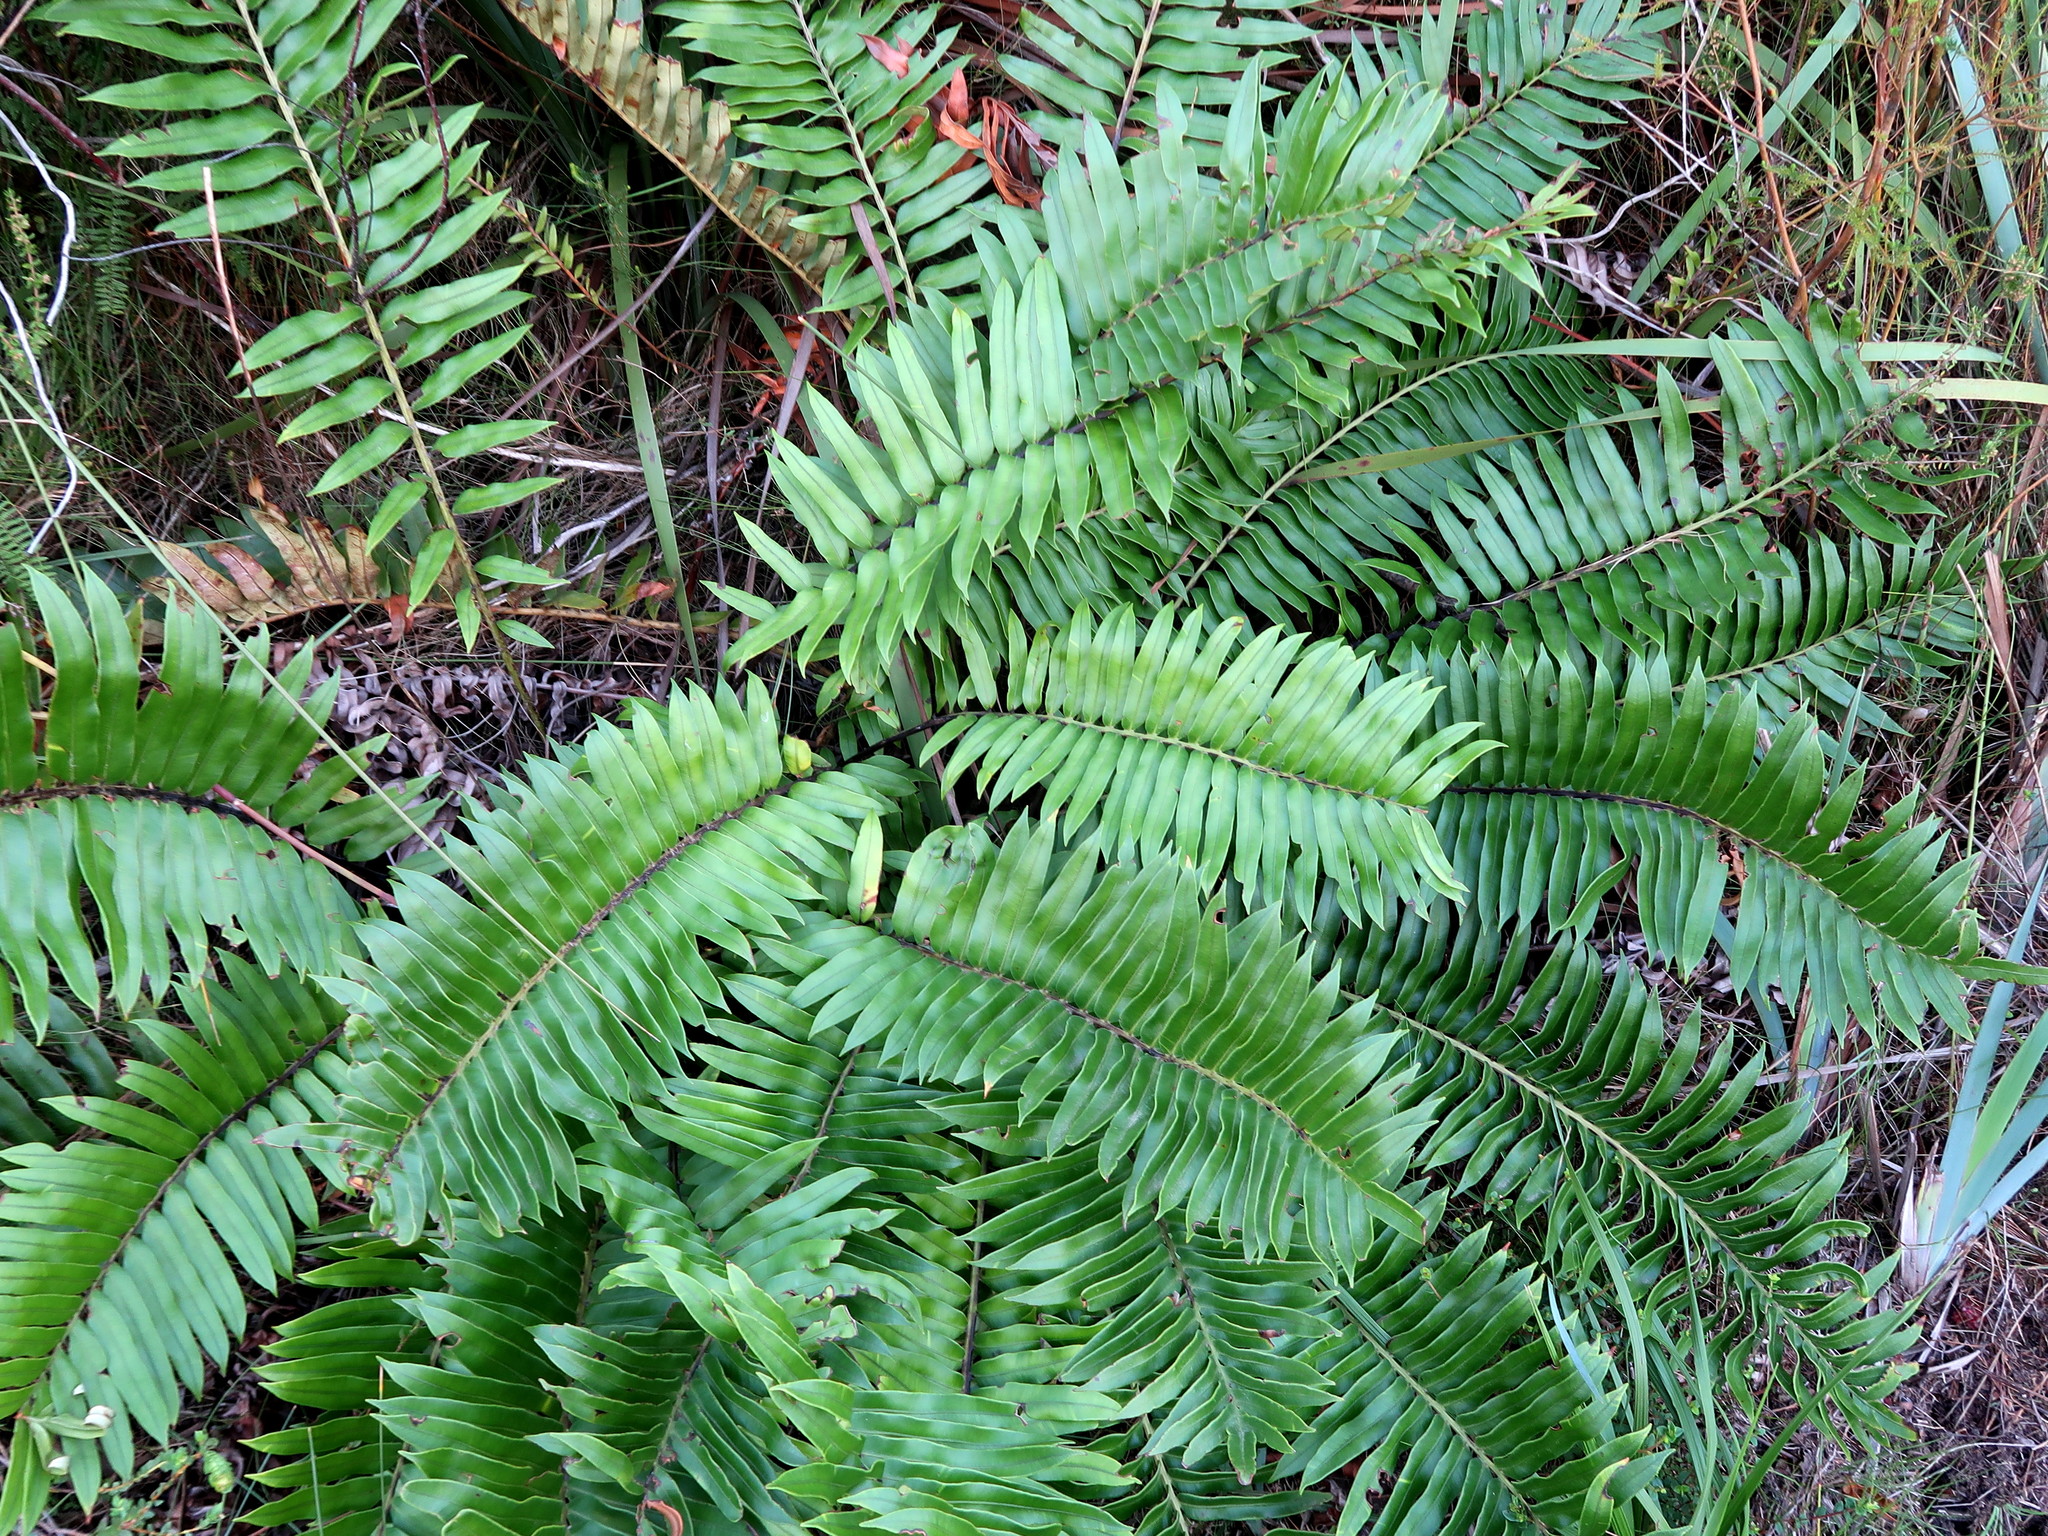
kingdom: Plantae
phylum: Tracheophyta
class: Polypodiopsida
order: Polypodiales
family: Blechnaceae
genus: Lomariocycas
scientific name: Lomariocycas tabularis
